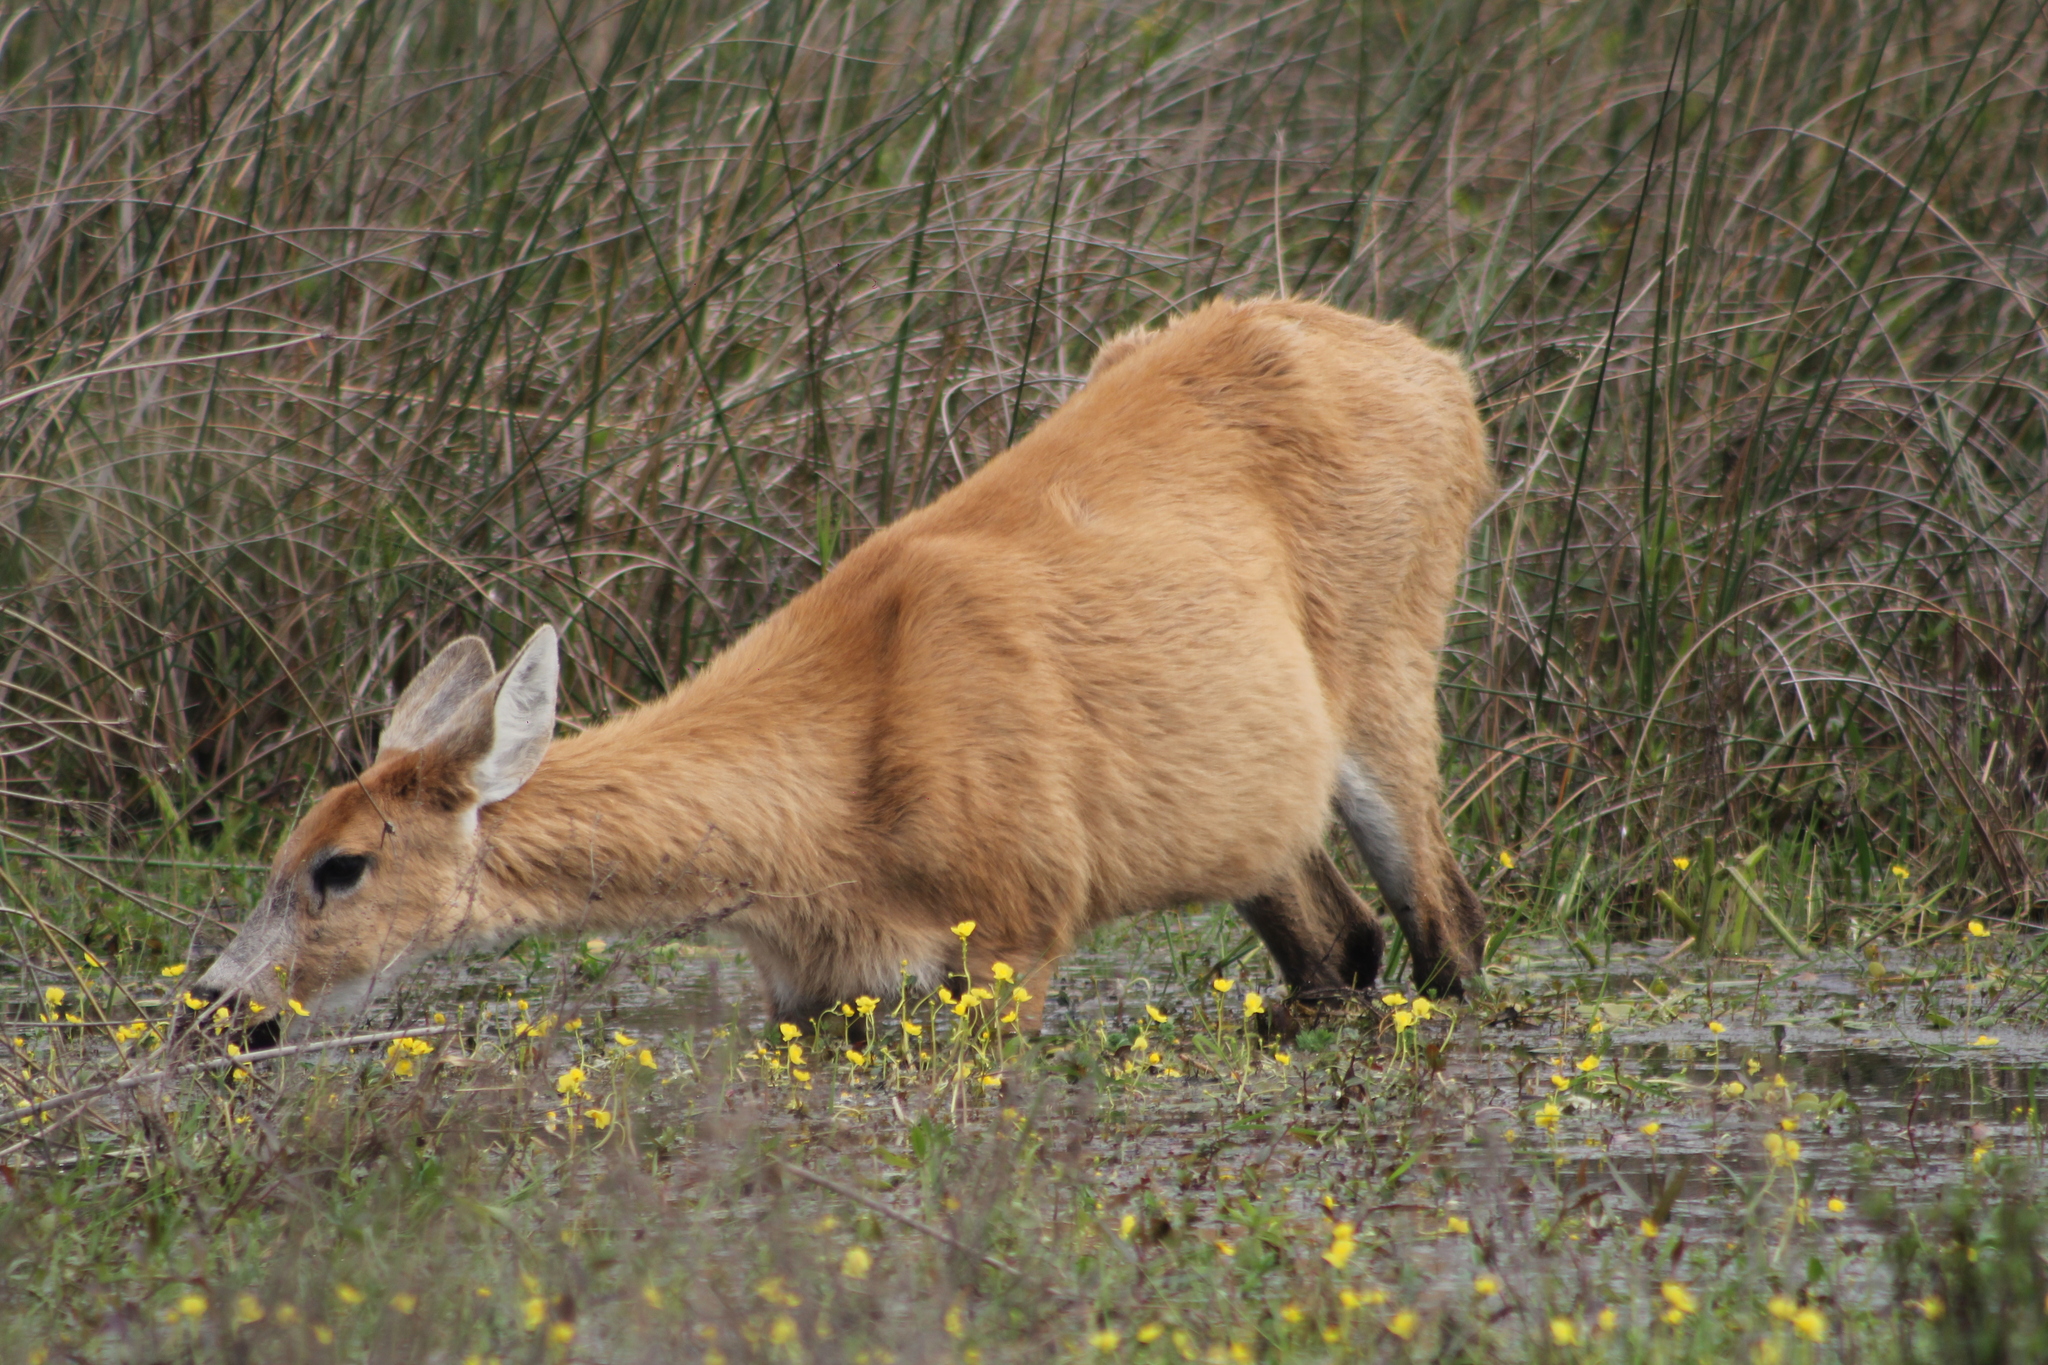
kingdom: Animalia
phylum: Chordata
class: Mammalia
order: Artiodactyla
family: Cervidae
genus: Blastocerus
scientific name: Blastocerus dichotomus
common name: Marsh deer
